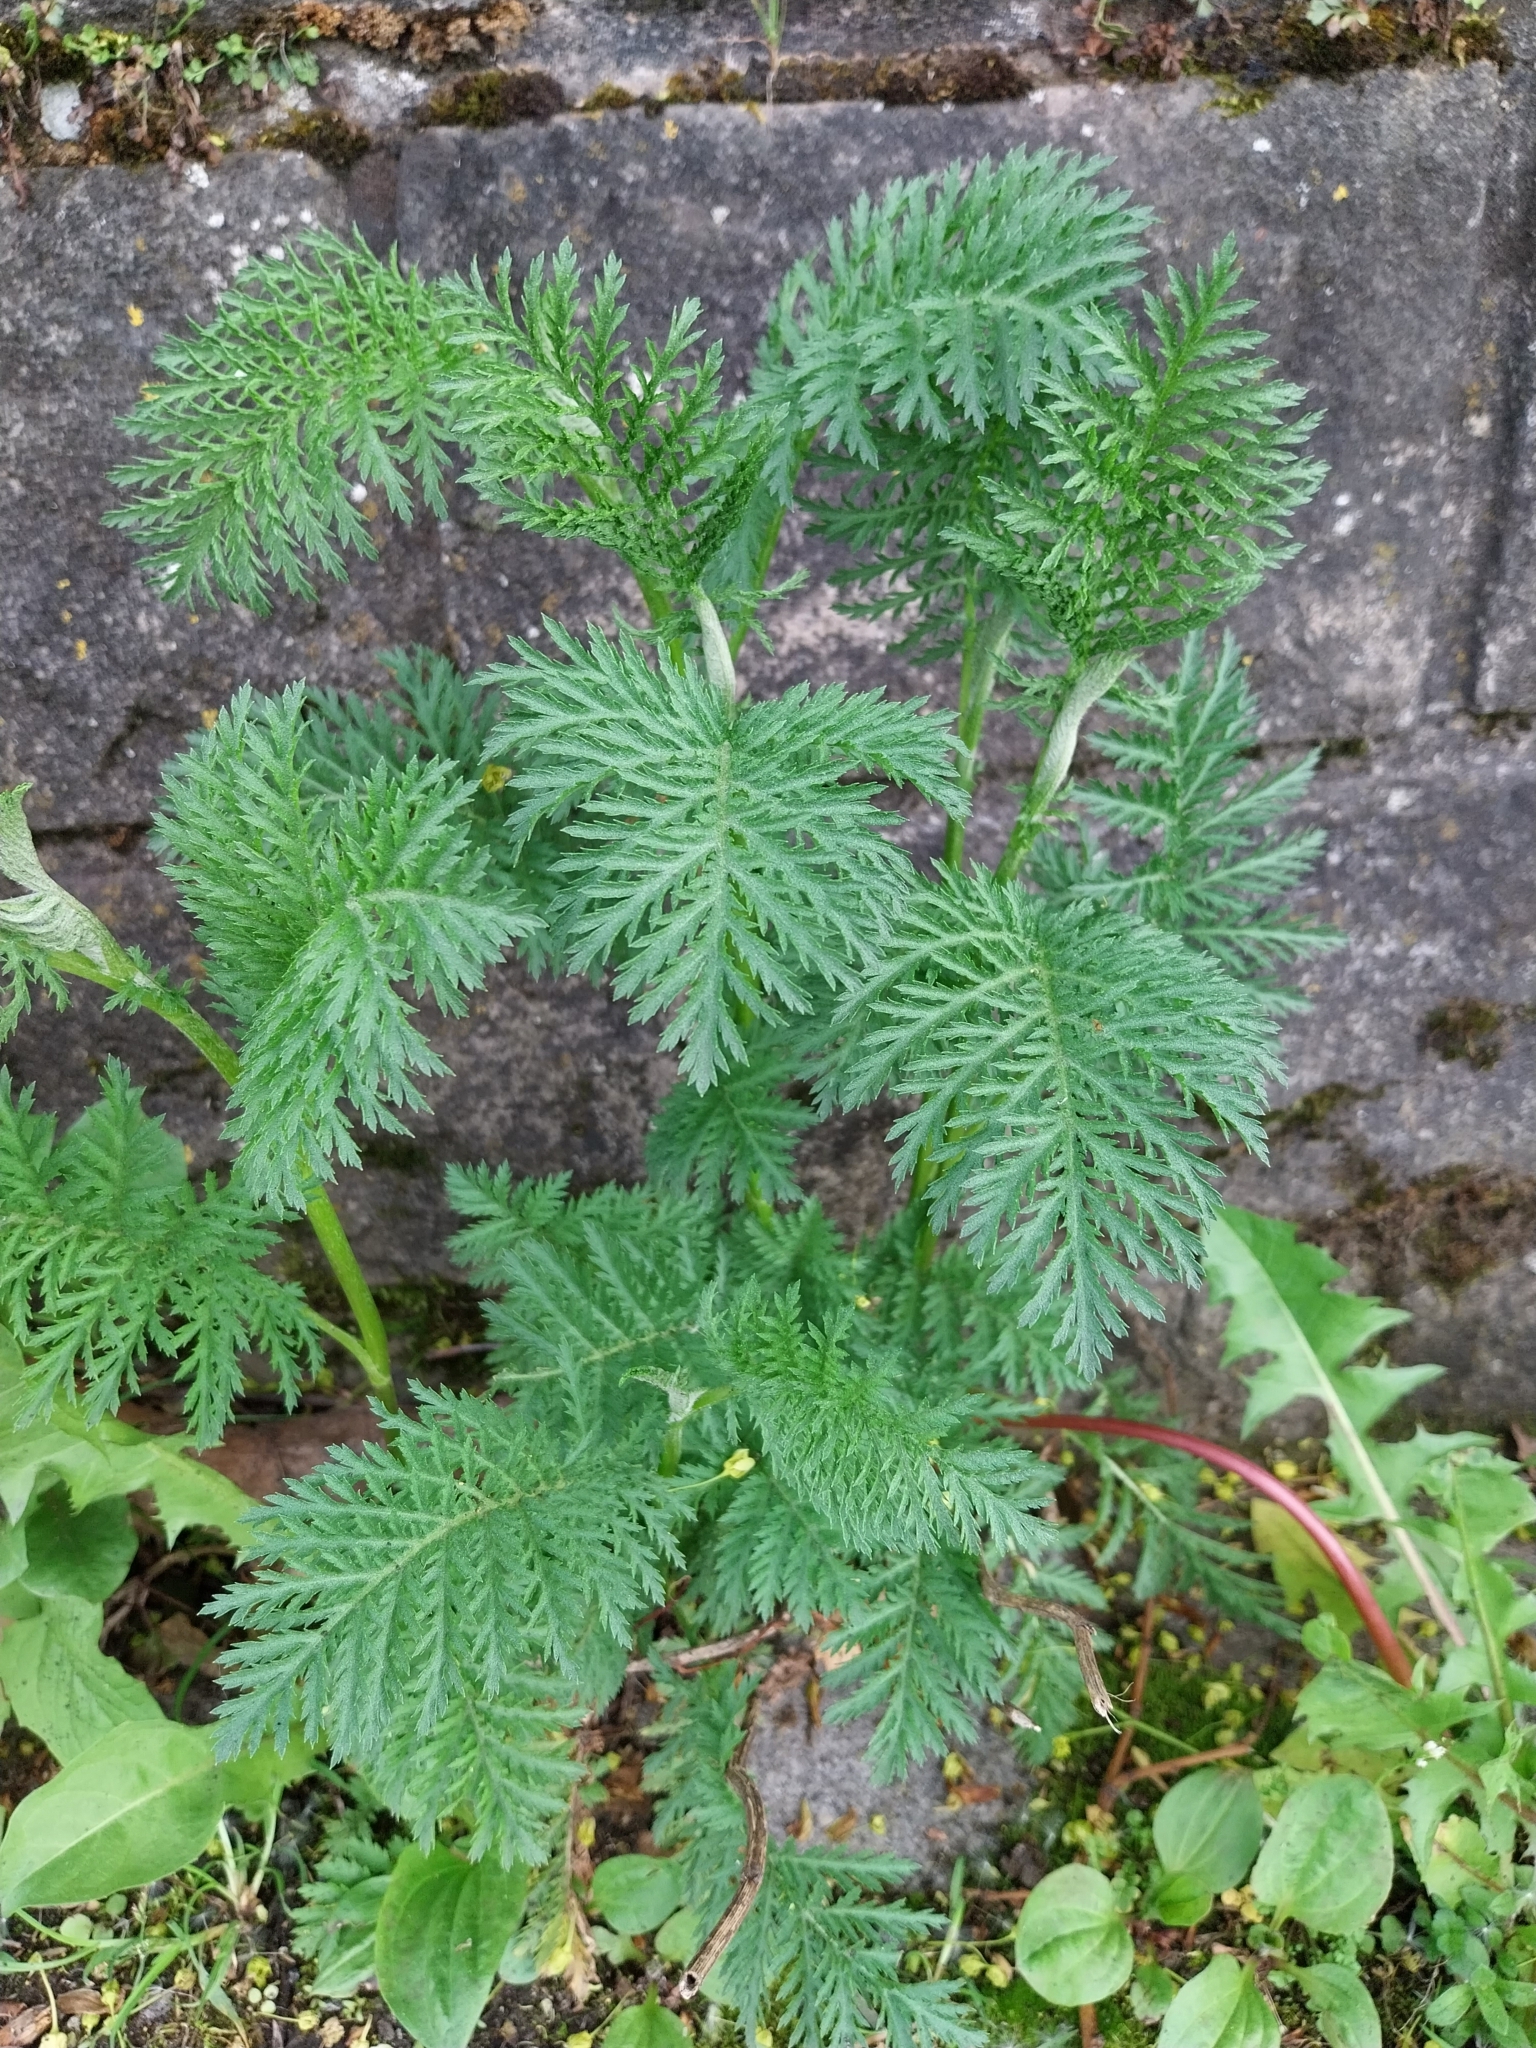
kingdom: Plantae
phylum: Tracheophyta
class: Magnoliopsida
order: Asterales
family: Asteraceae
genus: Tanacetum
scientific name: Tanacetum vulgare
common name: Common tansy
